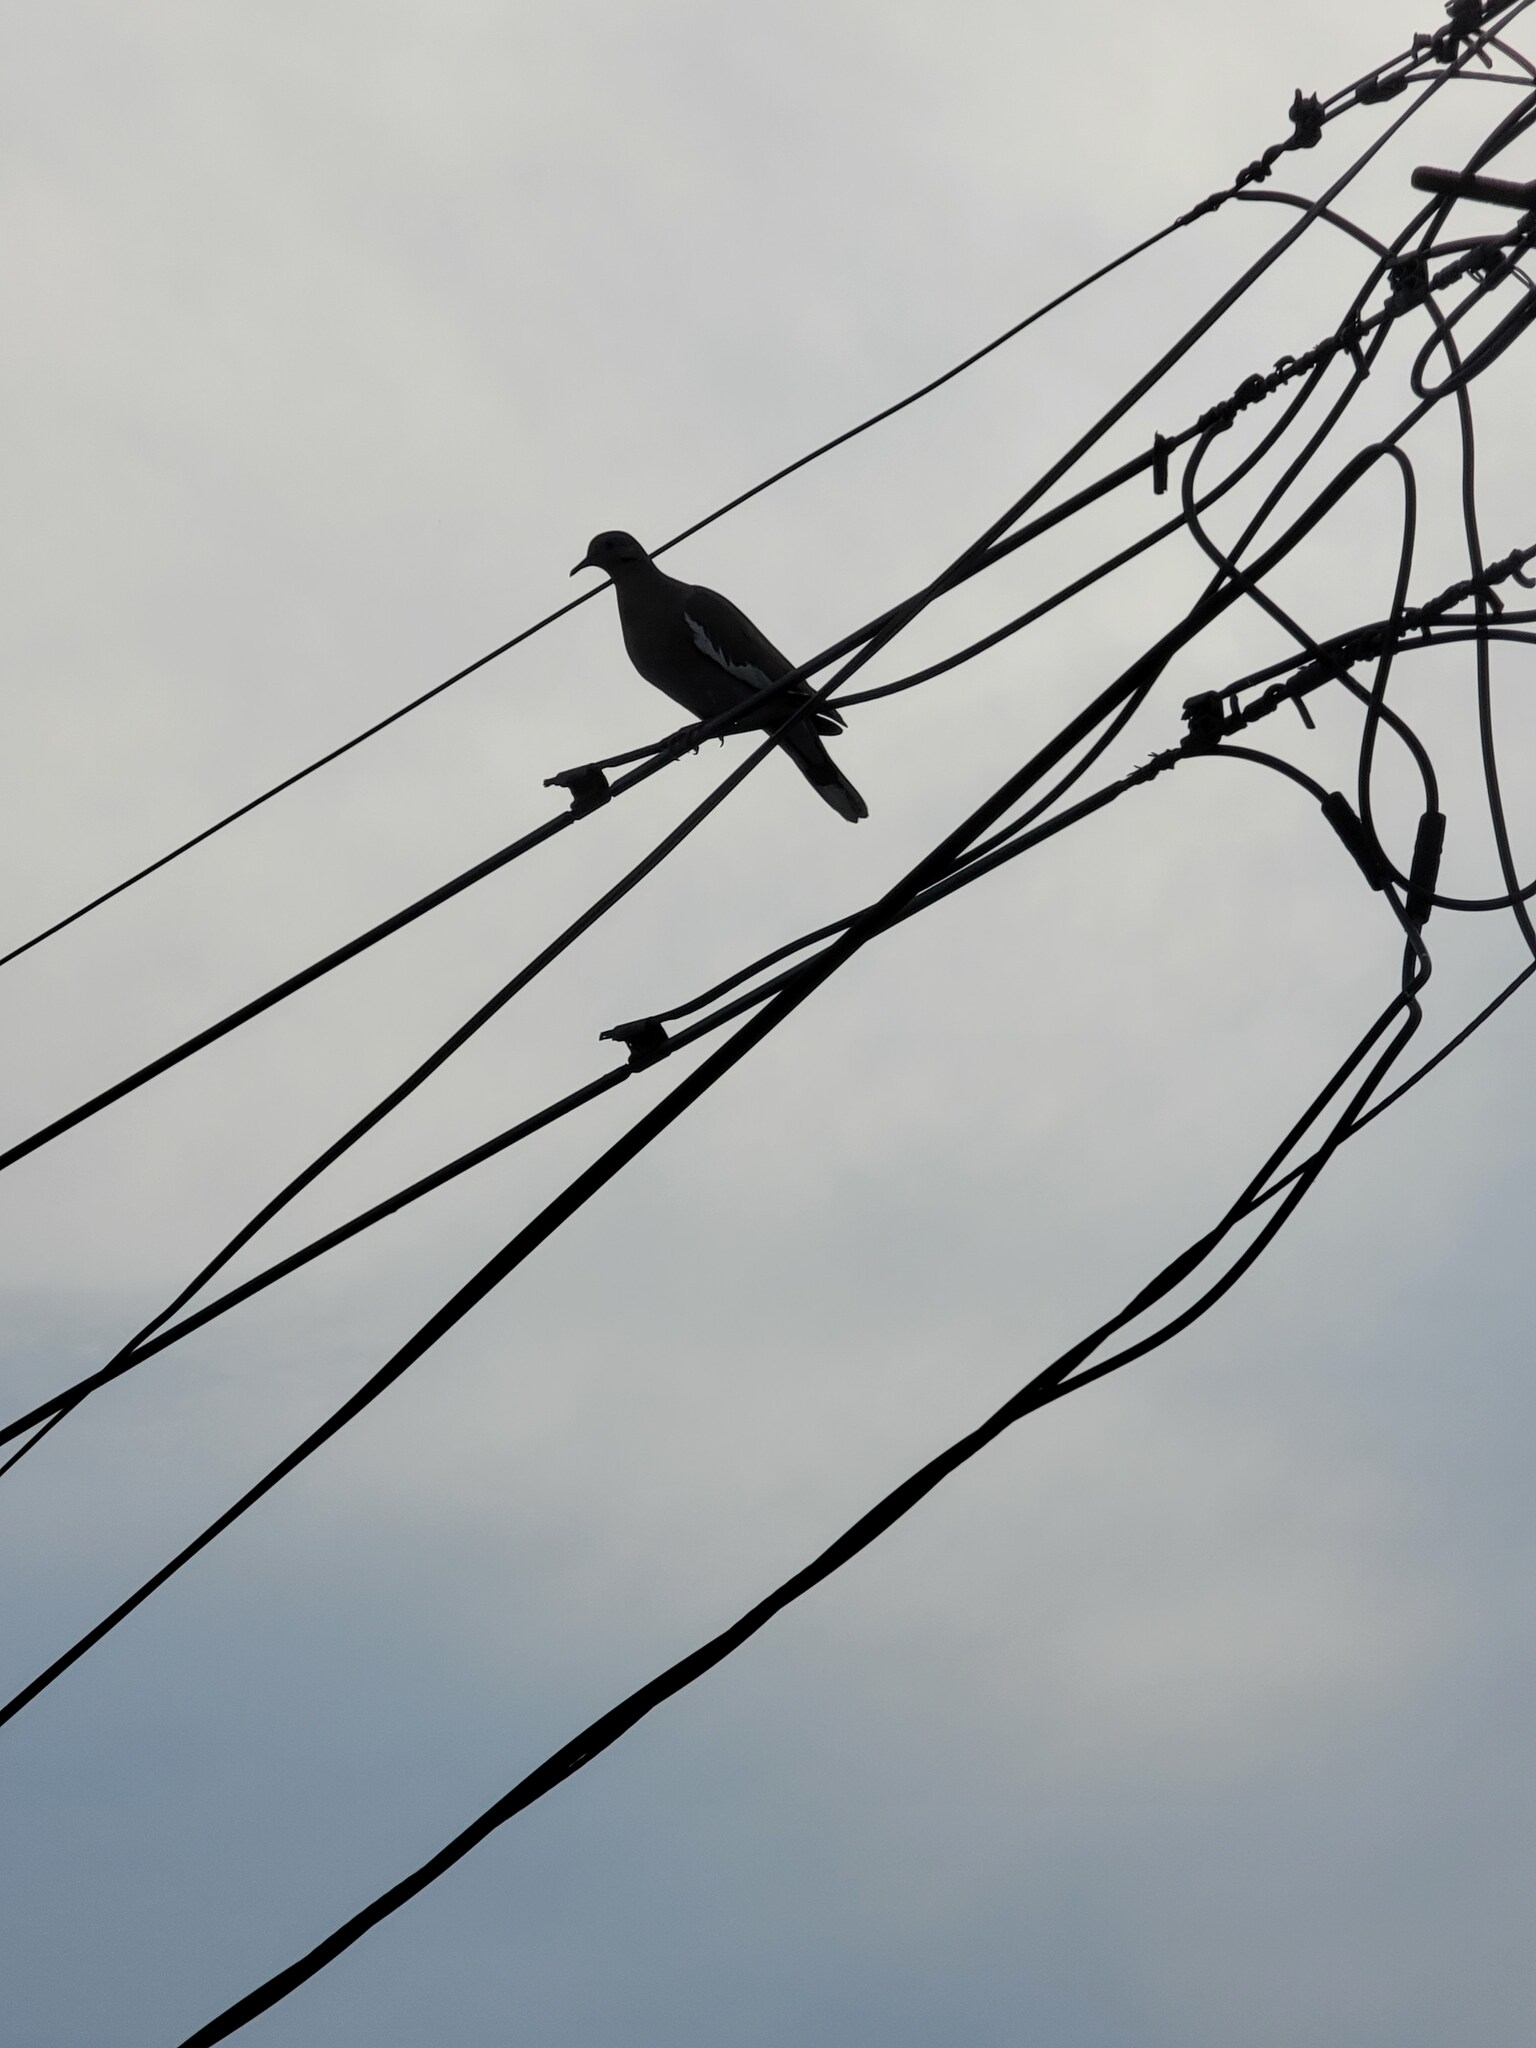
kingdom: Animalia
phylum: Chordata
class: Aves
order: Columbiformes
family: Columbidae
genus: Zenaida
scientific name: Zenaida asiatica
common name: White-winged dove
